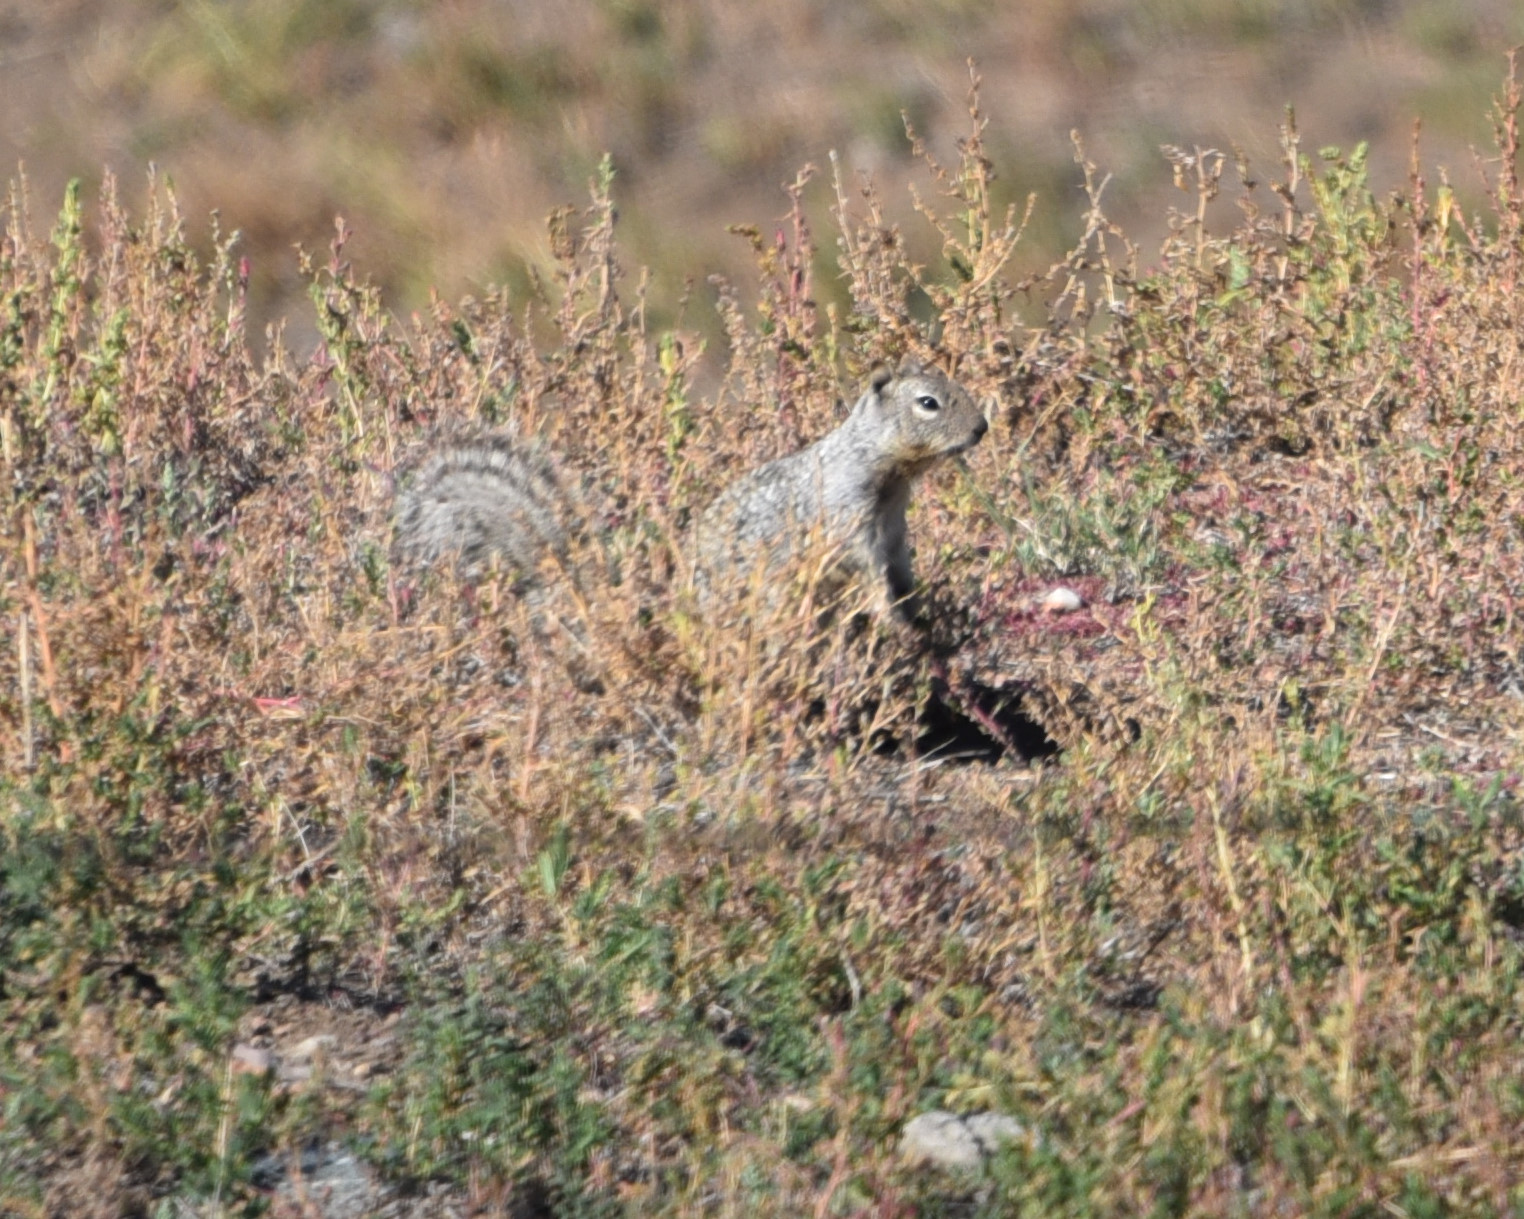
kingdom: Animalia
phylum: Chordata
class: Mammalia
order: Rodentia
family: Sciuridae
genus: Otospermophilus
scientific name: Otospermophilus variegatus
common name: Rock squirrel
